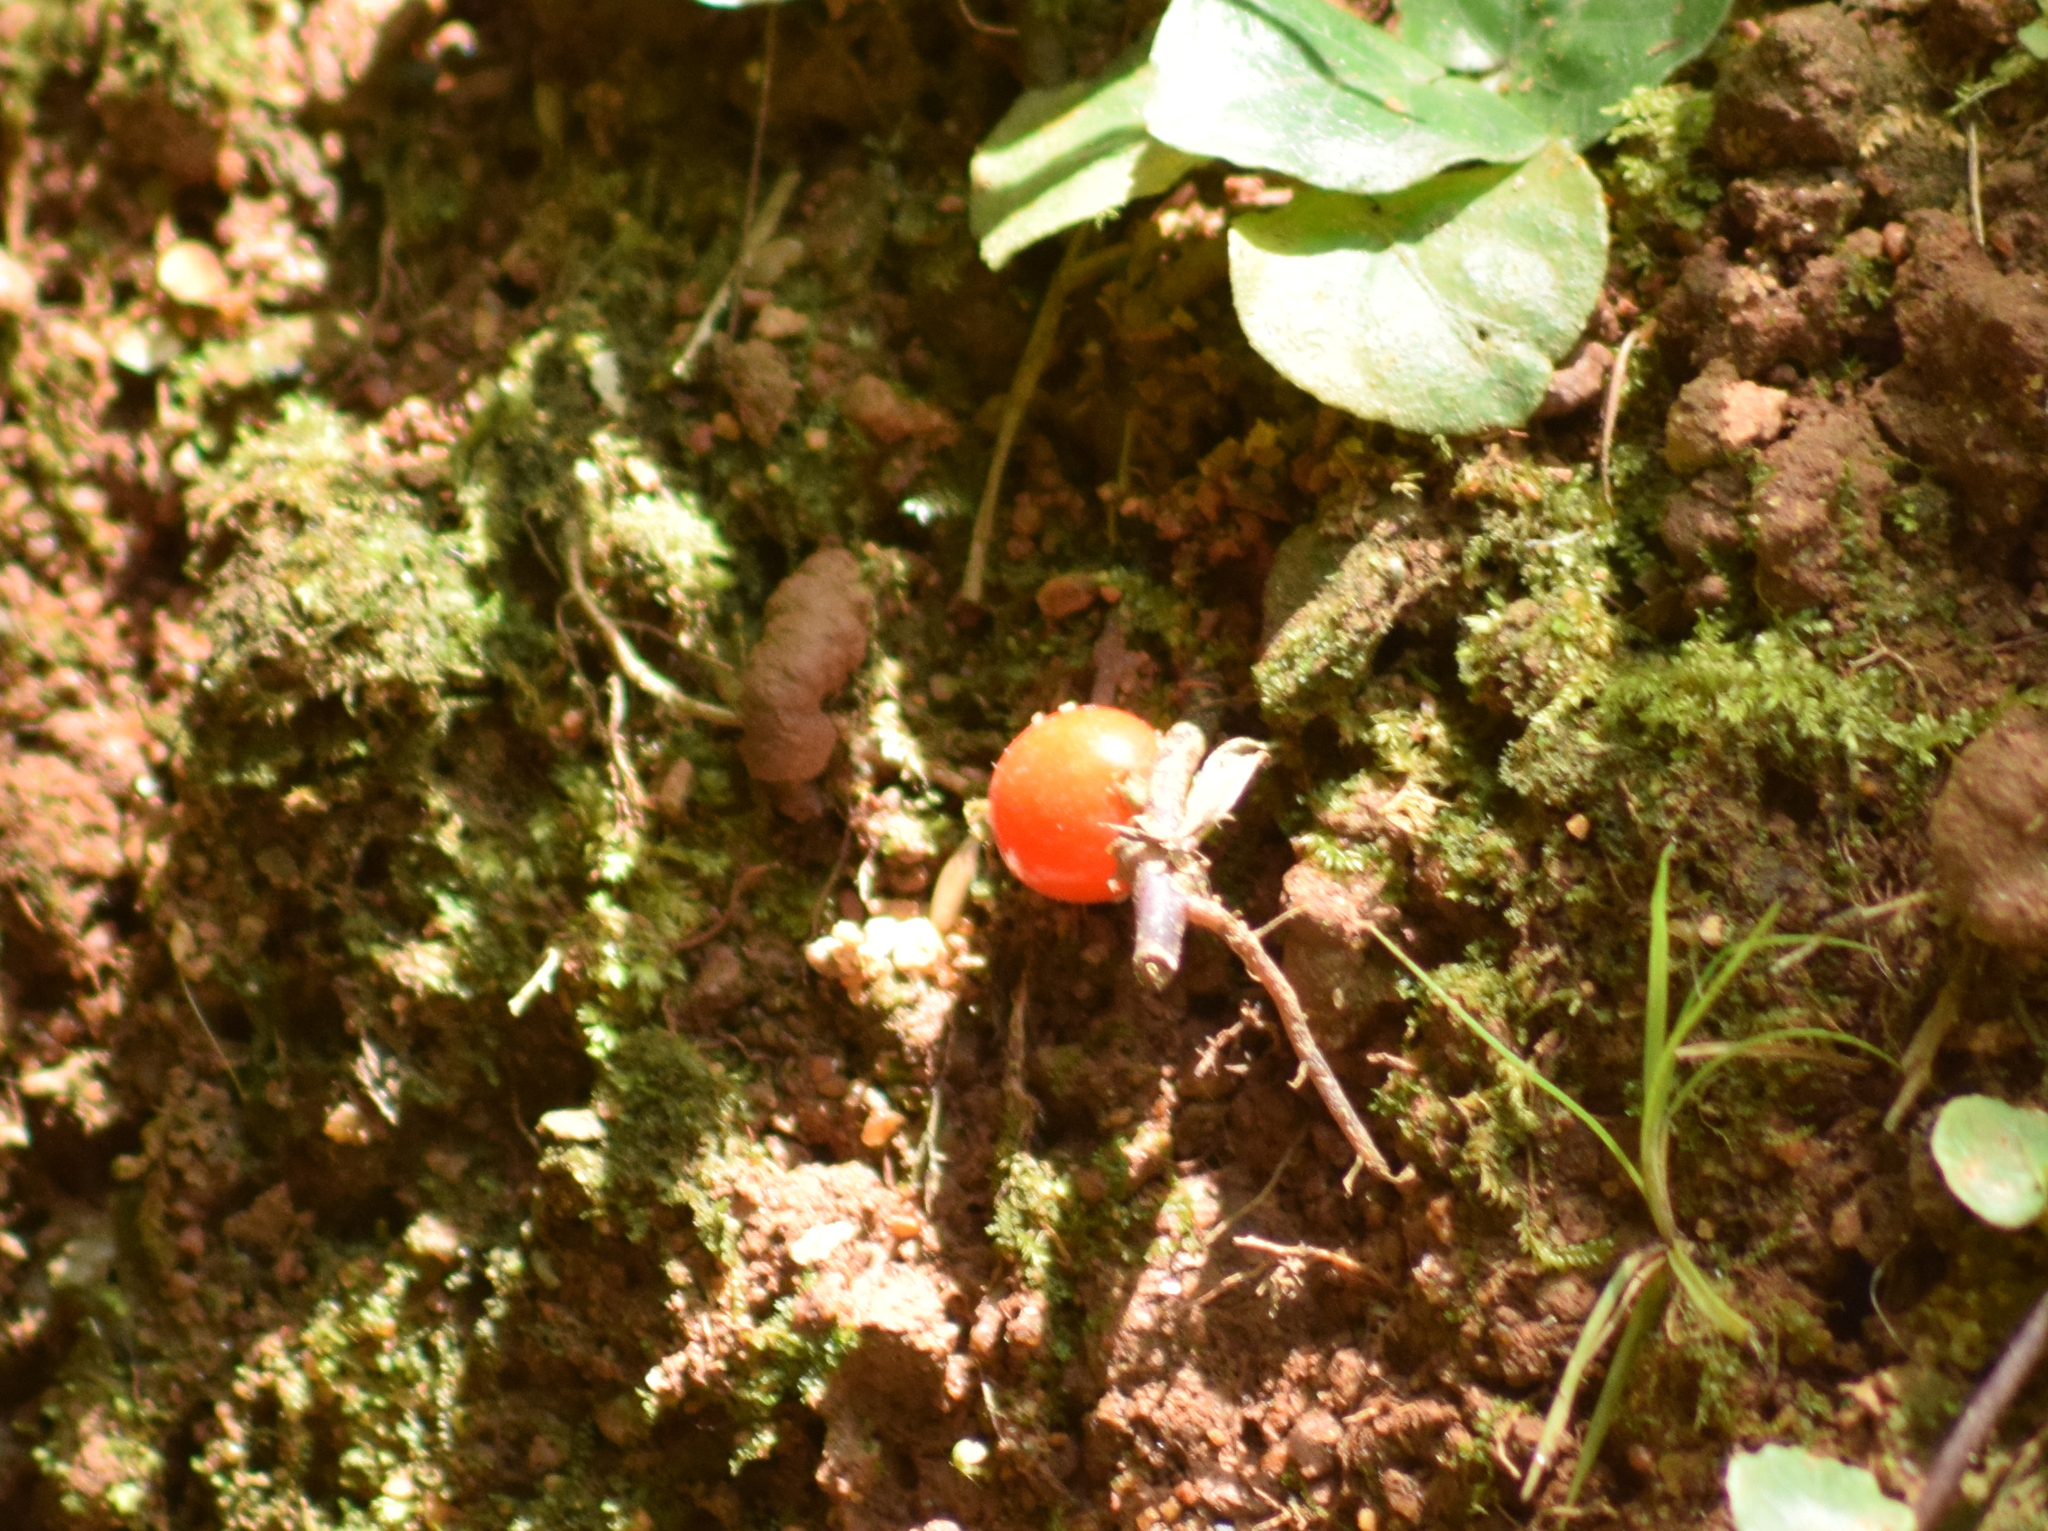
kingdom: Plantae
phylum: Tracheophyta
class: Magnoliopsida
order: Gentianales
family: Rubiaceae
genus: Geophila
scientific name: Geophila repens
